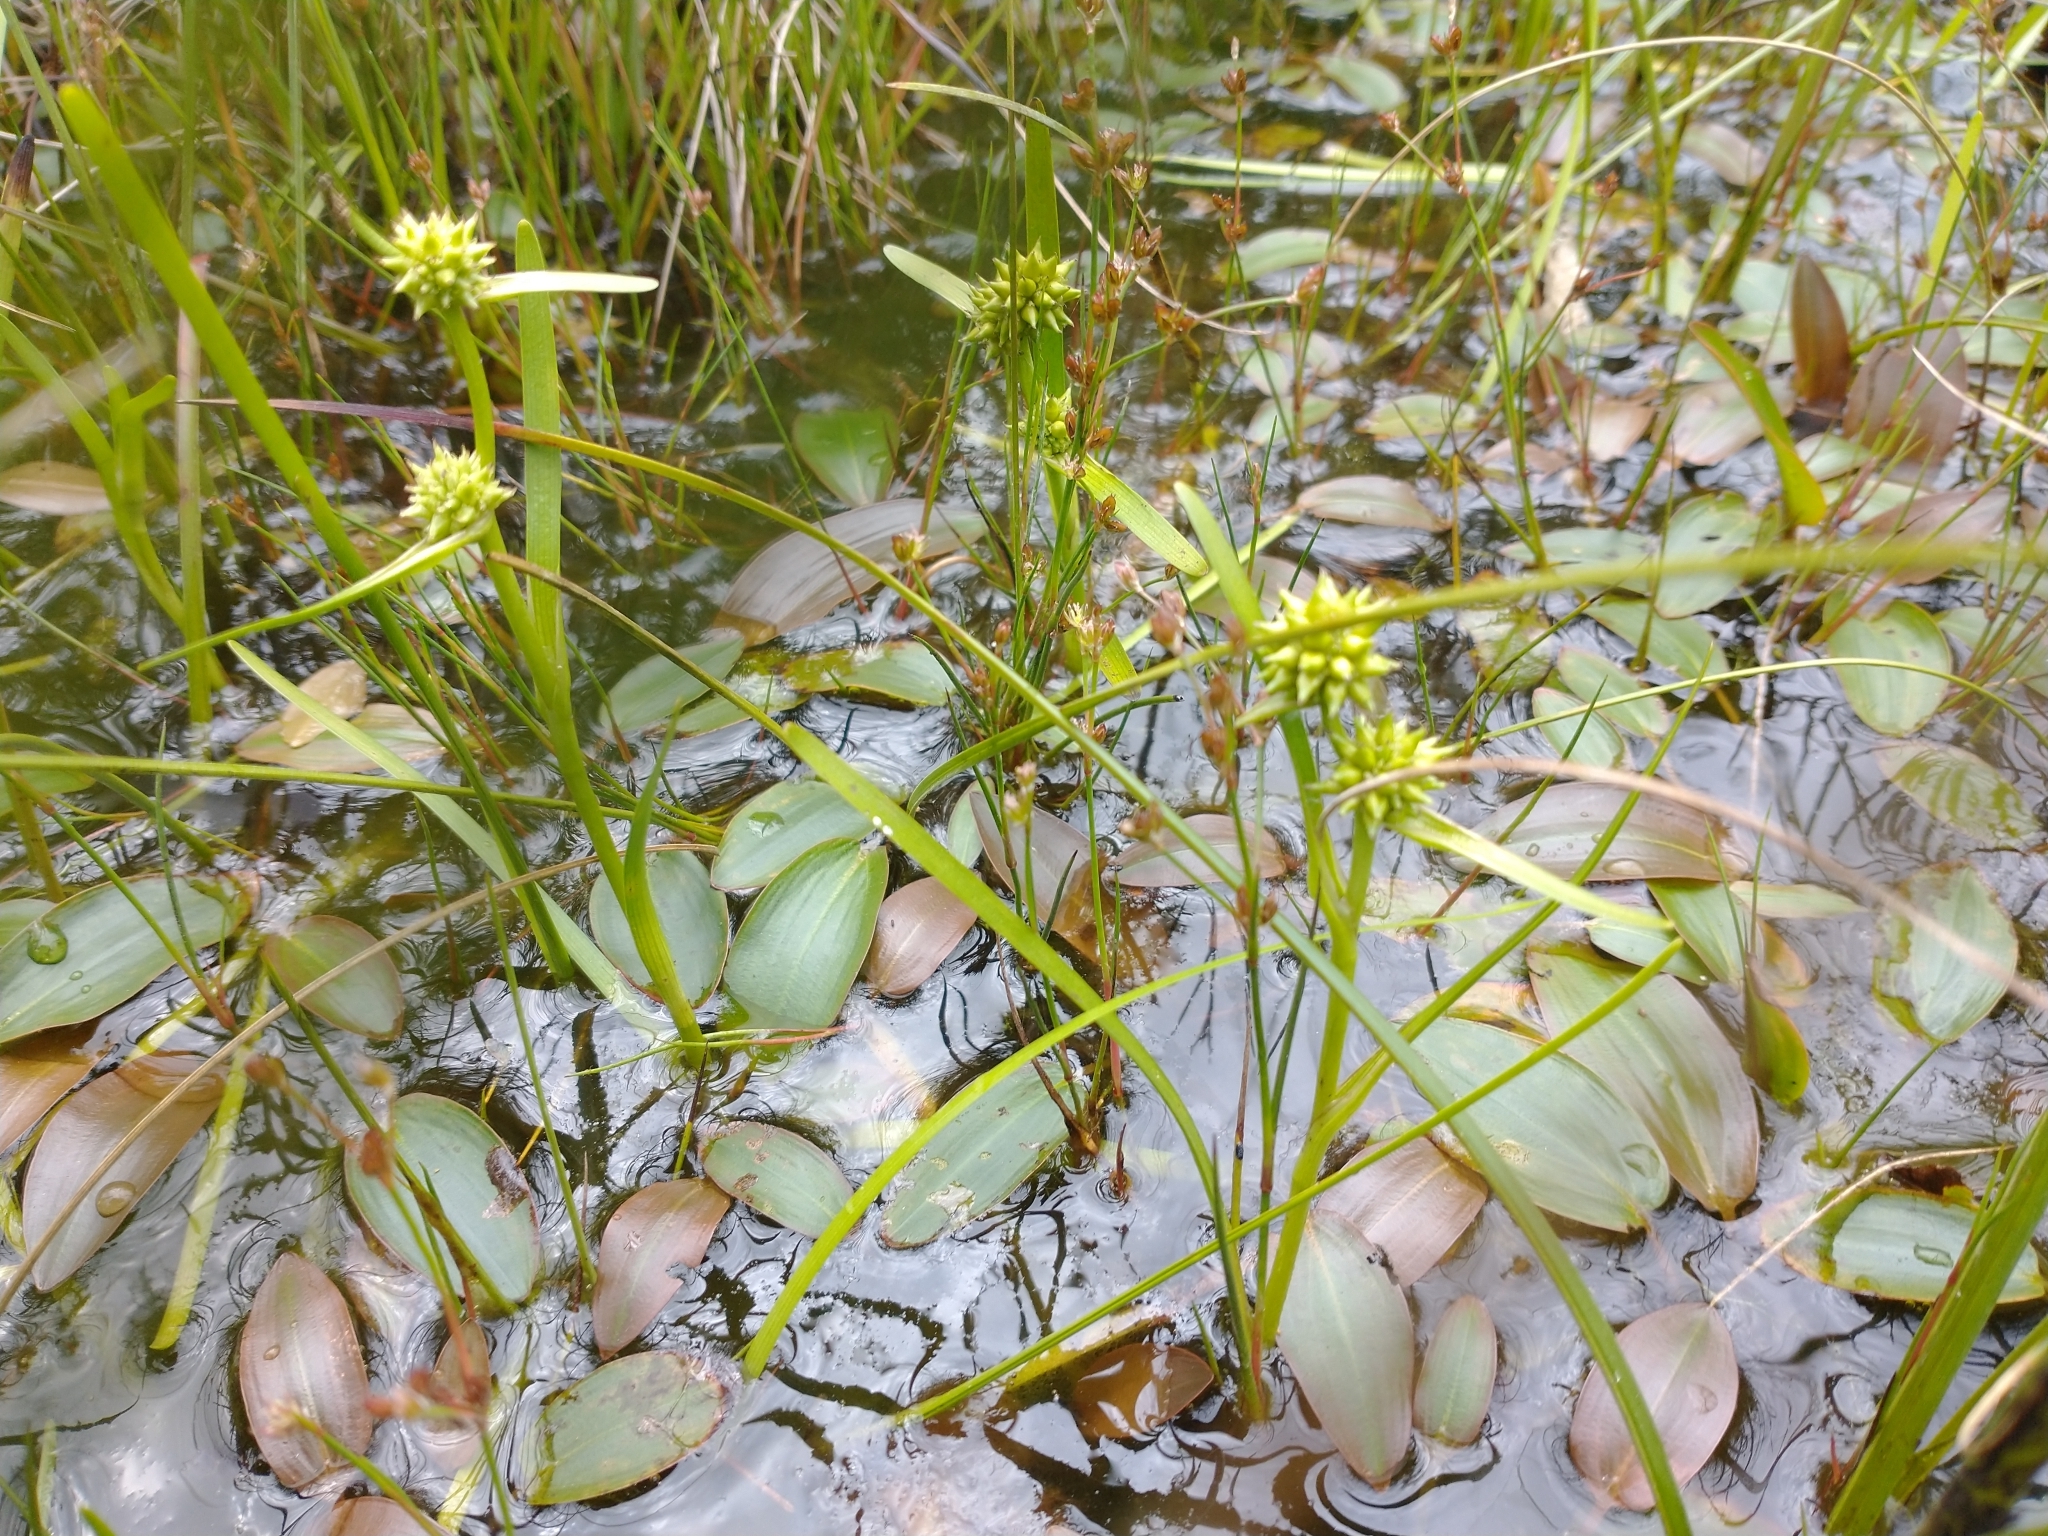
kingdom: Plantae
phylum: Tracheophyta
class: Liliopsida
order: Poales
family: Typhaceae
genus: Sparganium
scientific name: Sparganium natans
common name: Least bur-reed
